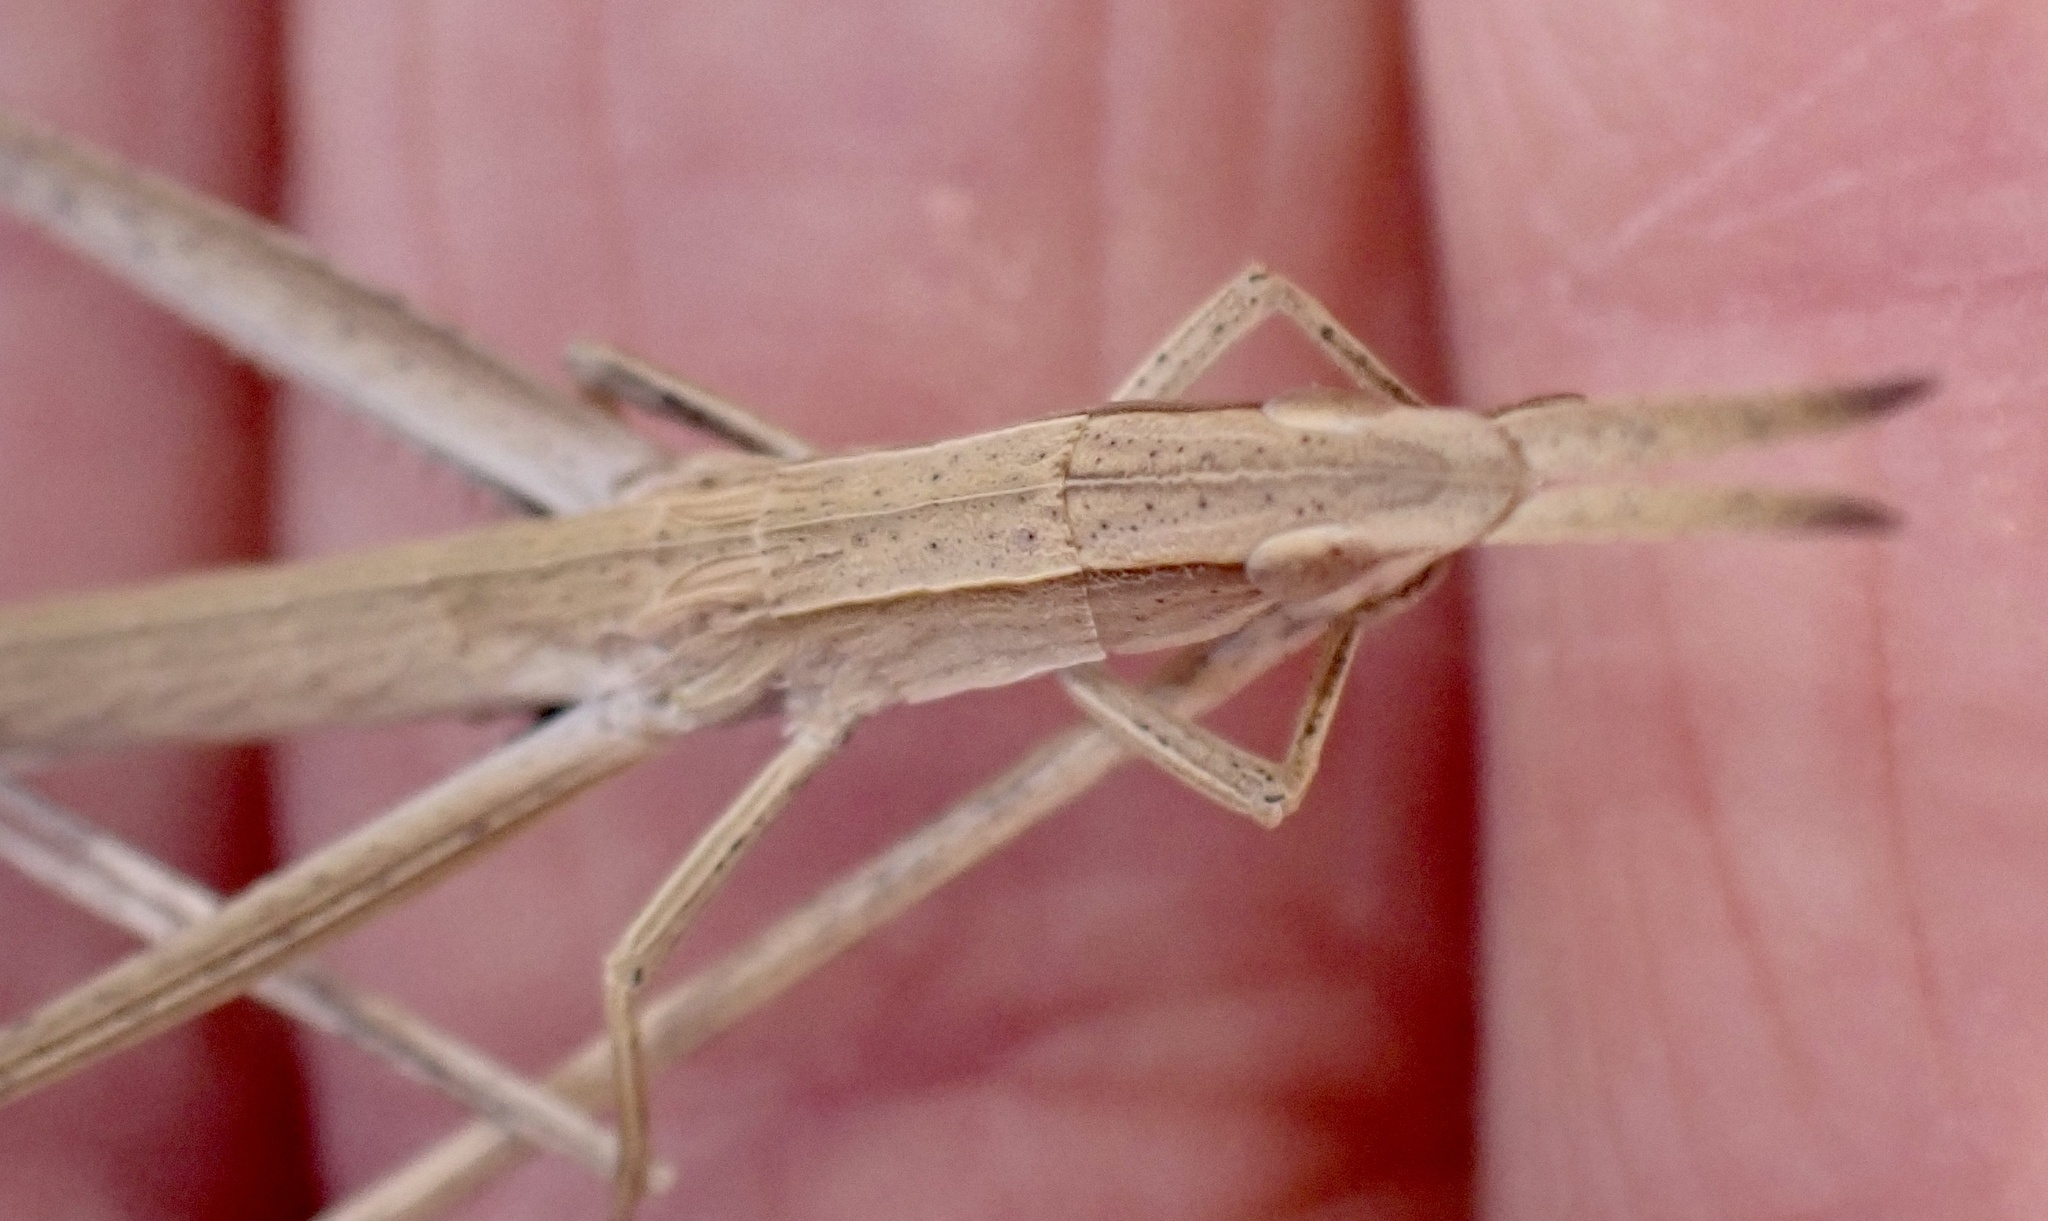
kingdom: Animalia
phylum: Arthropoda
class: Insecta
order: Orthoptera
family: Acrididae
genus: Achurum
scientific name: Achurum carinatum
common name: Long-headed toothpick grasshopper
